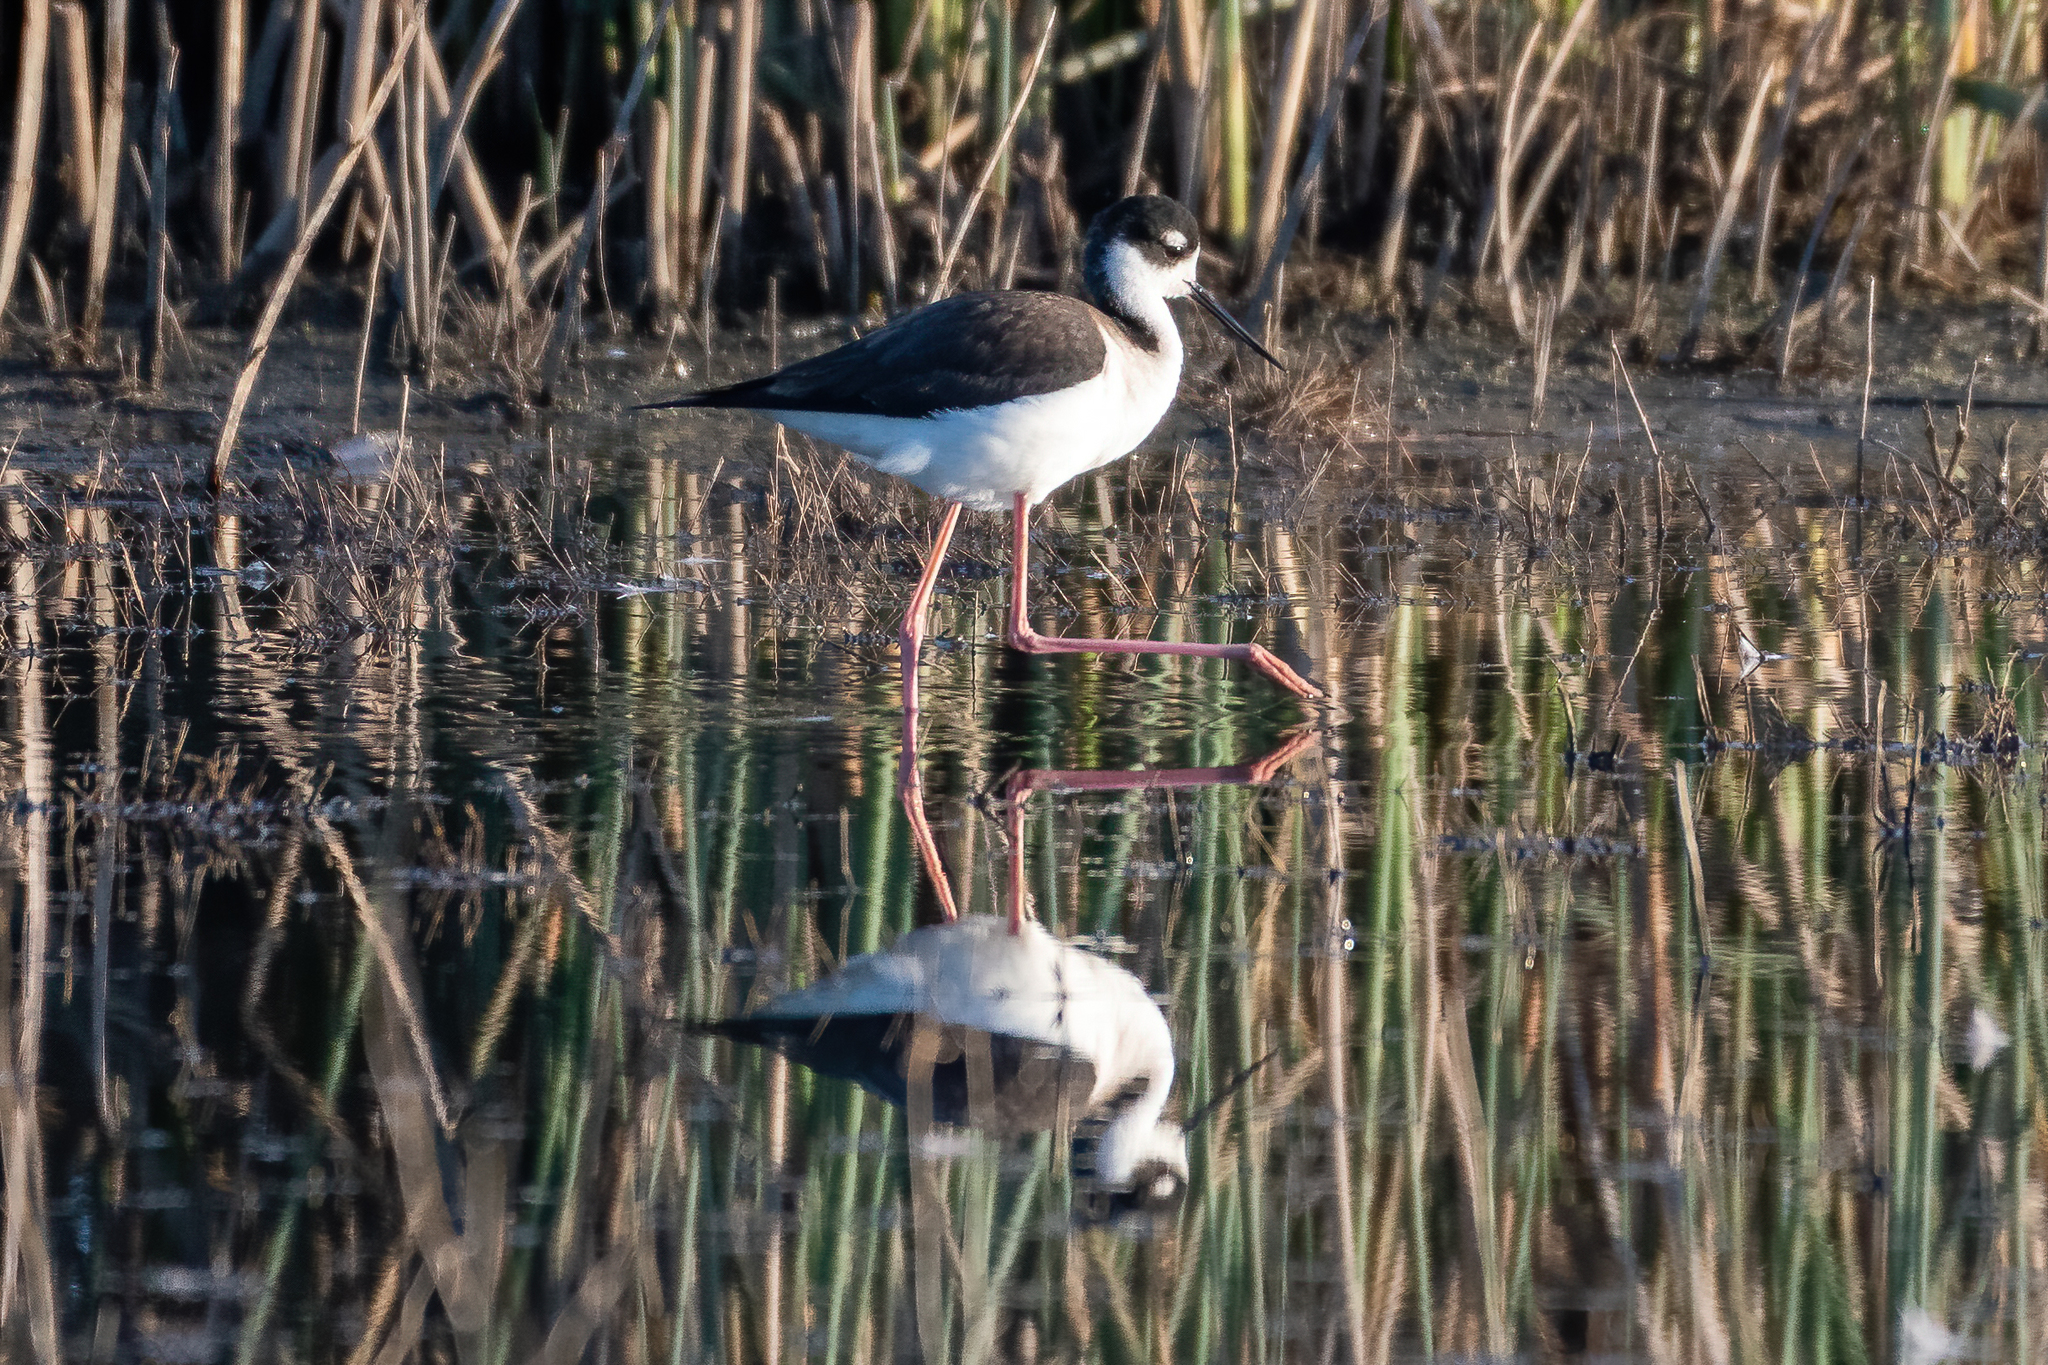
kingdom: Animalia
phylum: Chordata
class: Aves
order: Charadriiformes
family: Recurvirostridae
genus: Himantopus
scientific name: Himantopus mexicanus
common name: Black-necked stilt
